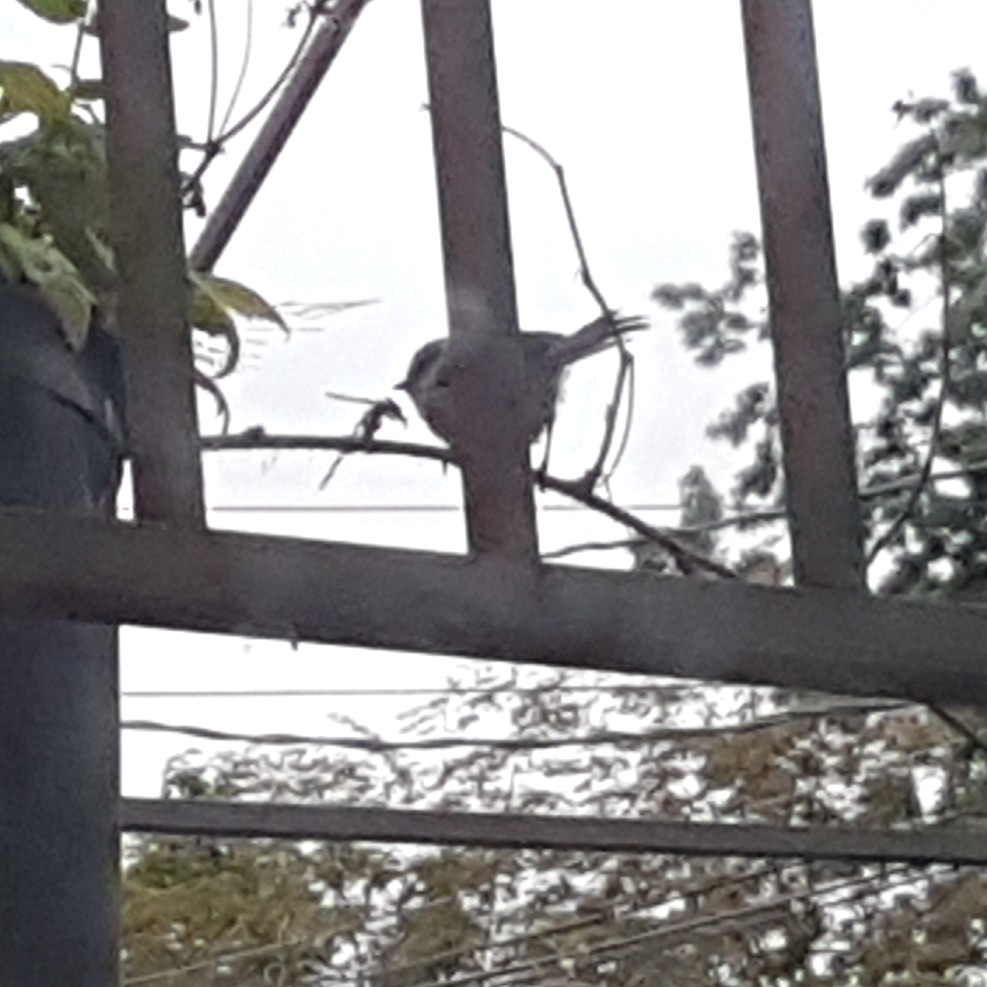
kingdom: Animalia
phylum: Chordata
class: Aves
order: Passeriformes
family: Aegithalidae
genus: Psaltriparus
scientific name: Psaltriparus minimus
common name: American bushtit
